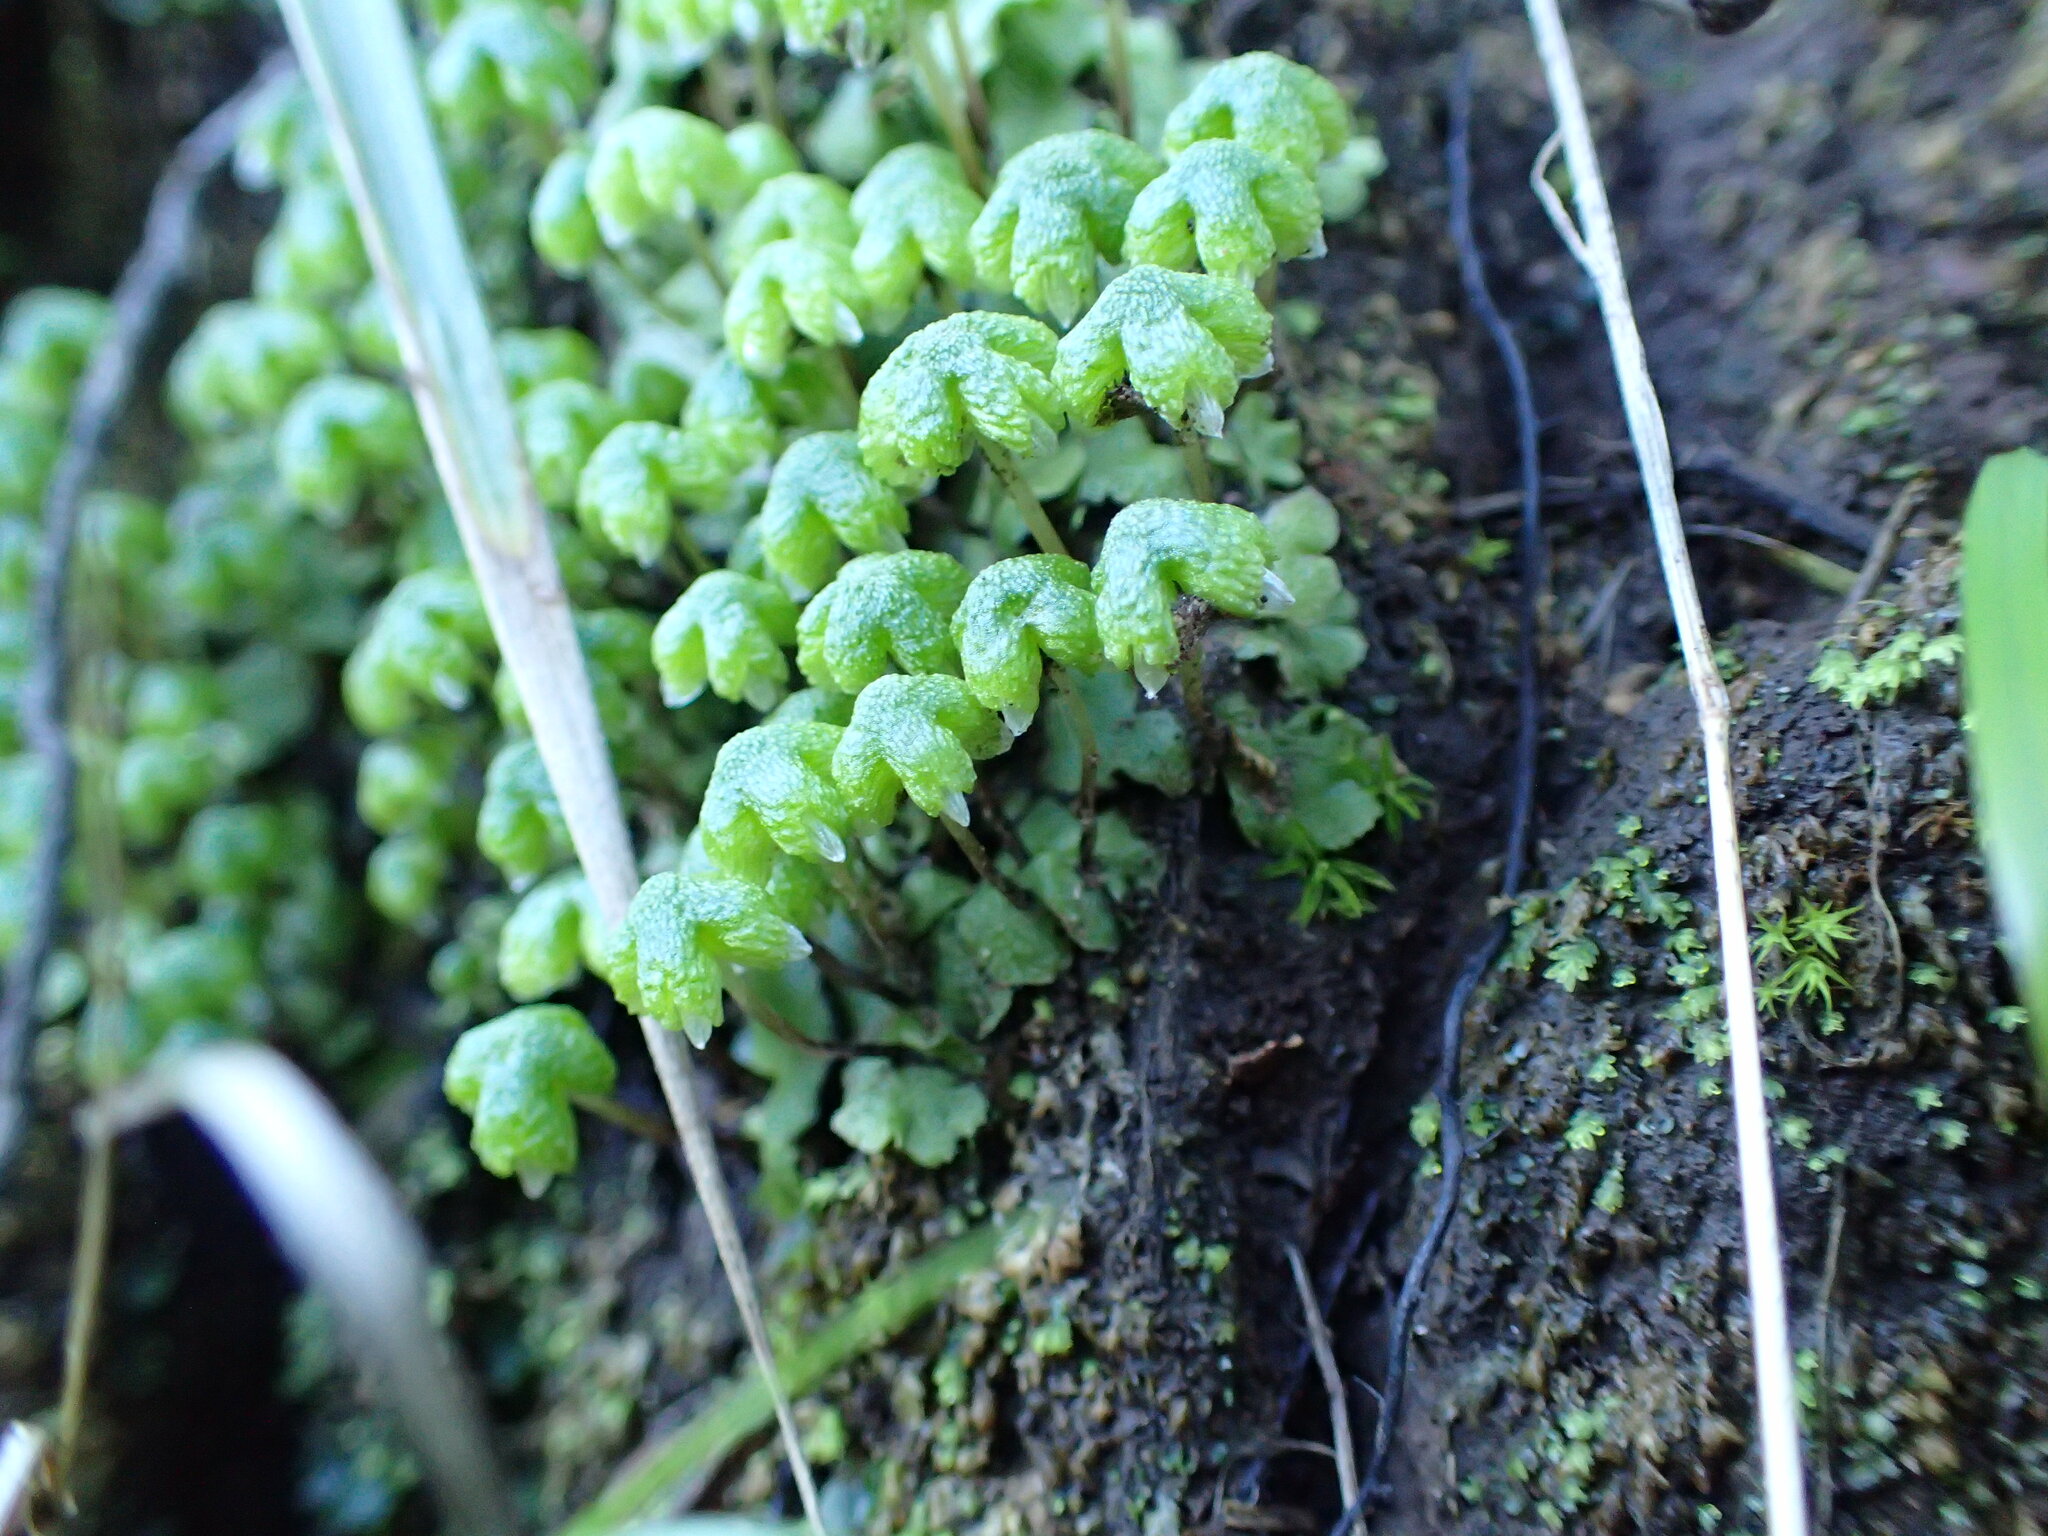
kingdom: Plantae
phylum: Marchantiophyta
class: Marchantiopsida
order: Marchantiales
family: Aytoniaceae
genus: Asterella
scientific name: Asterella californica
